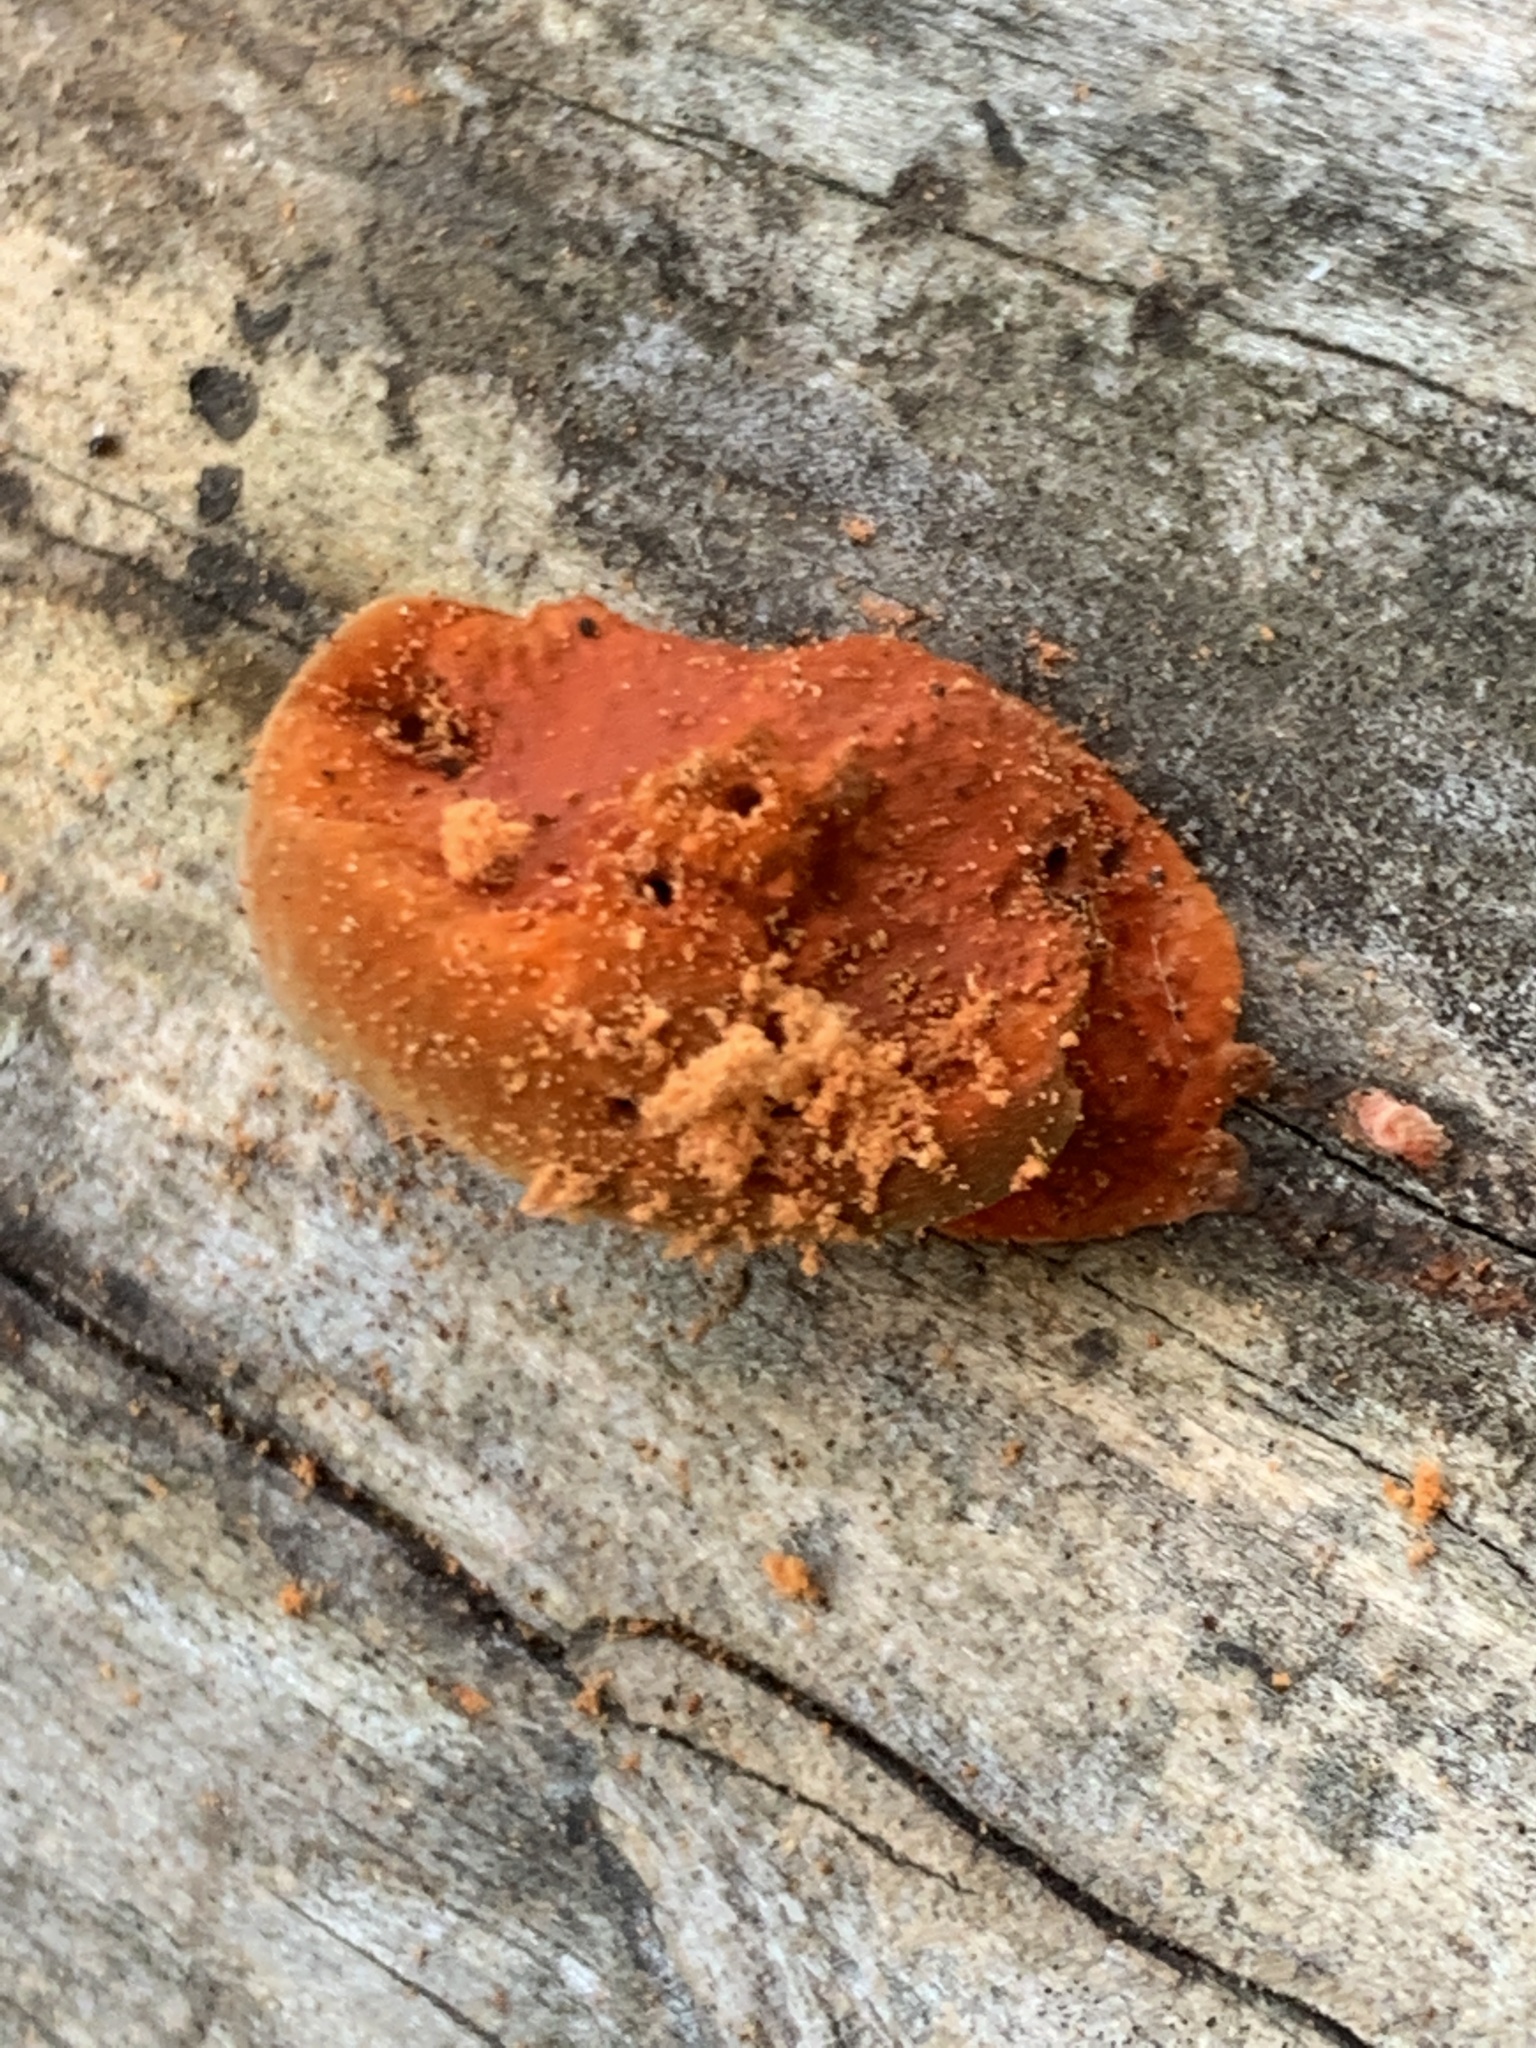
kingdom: Fungi
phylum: Basidiomycota
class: Agaricomycetes
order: Polyporales
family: Polyporaceae
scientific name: Polyporaceae
